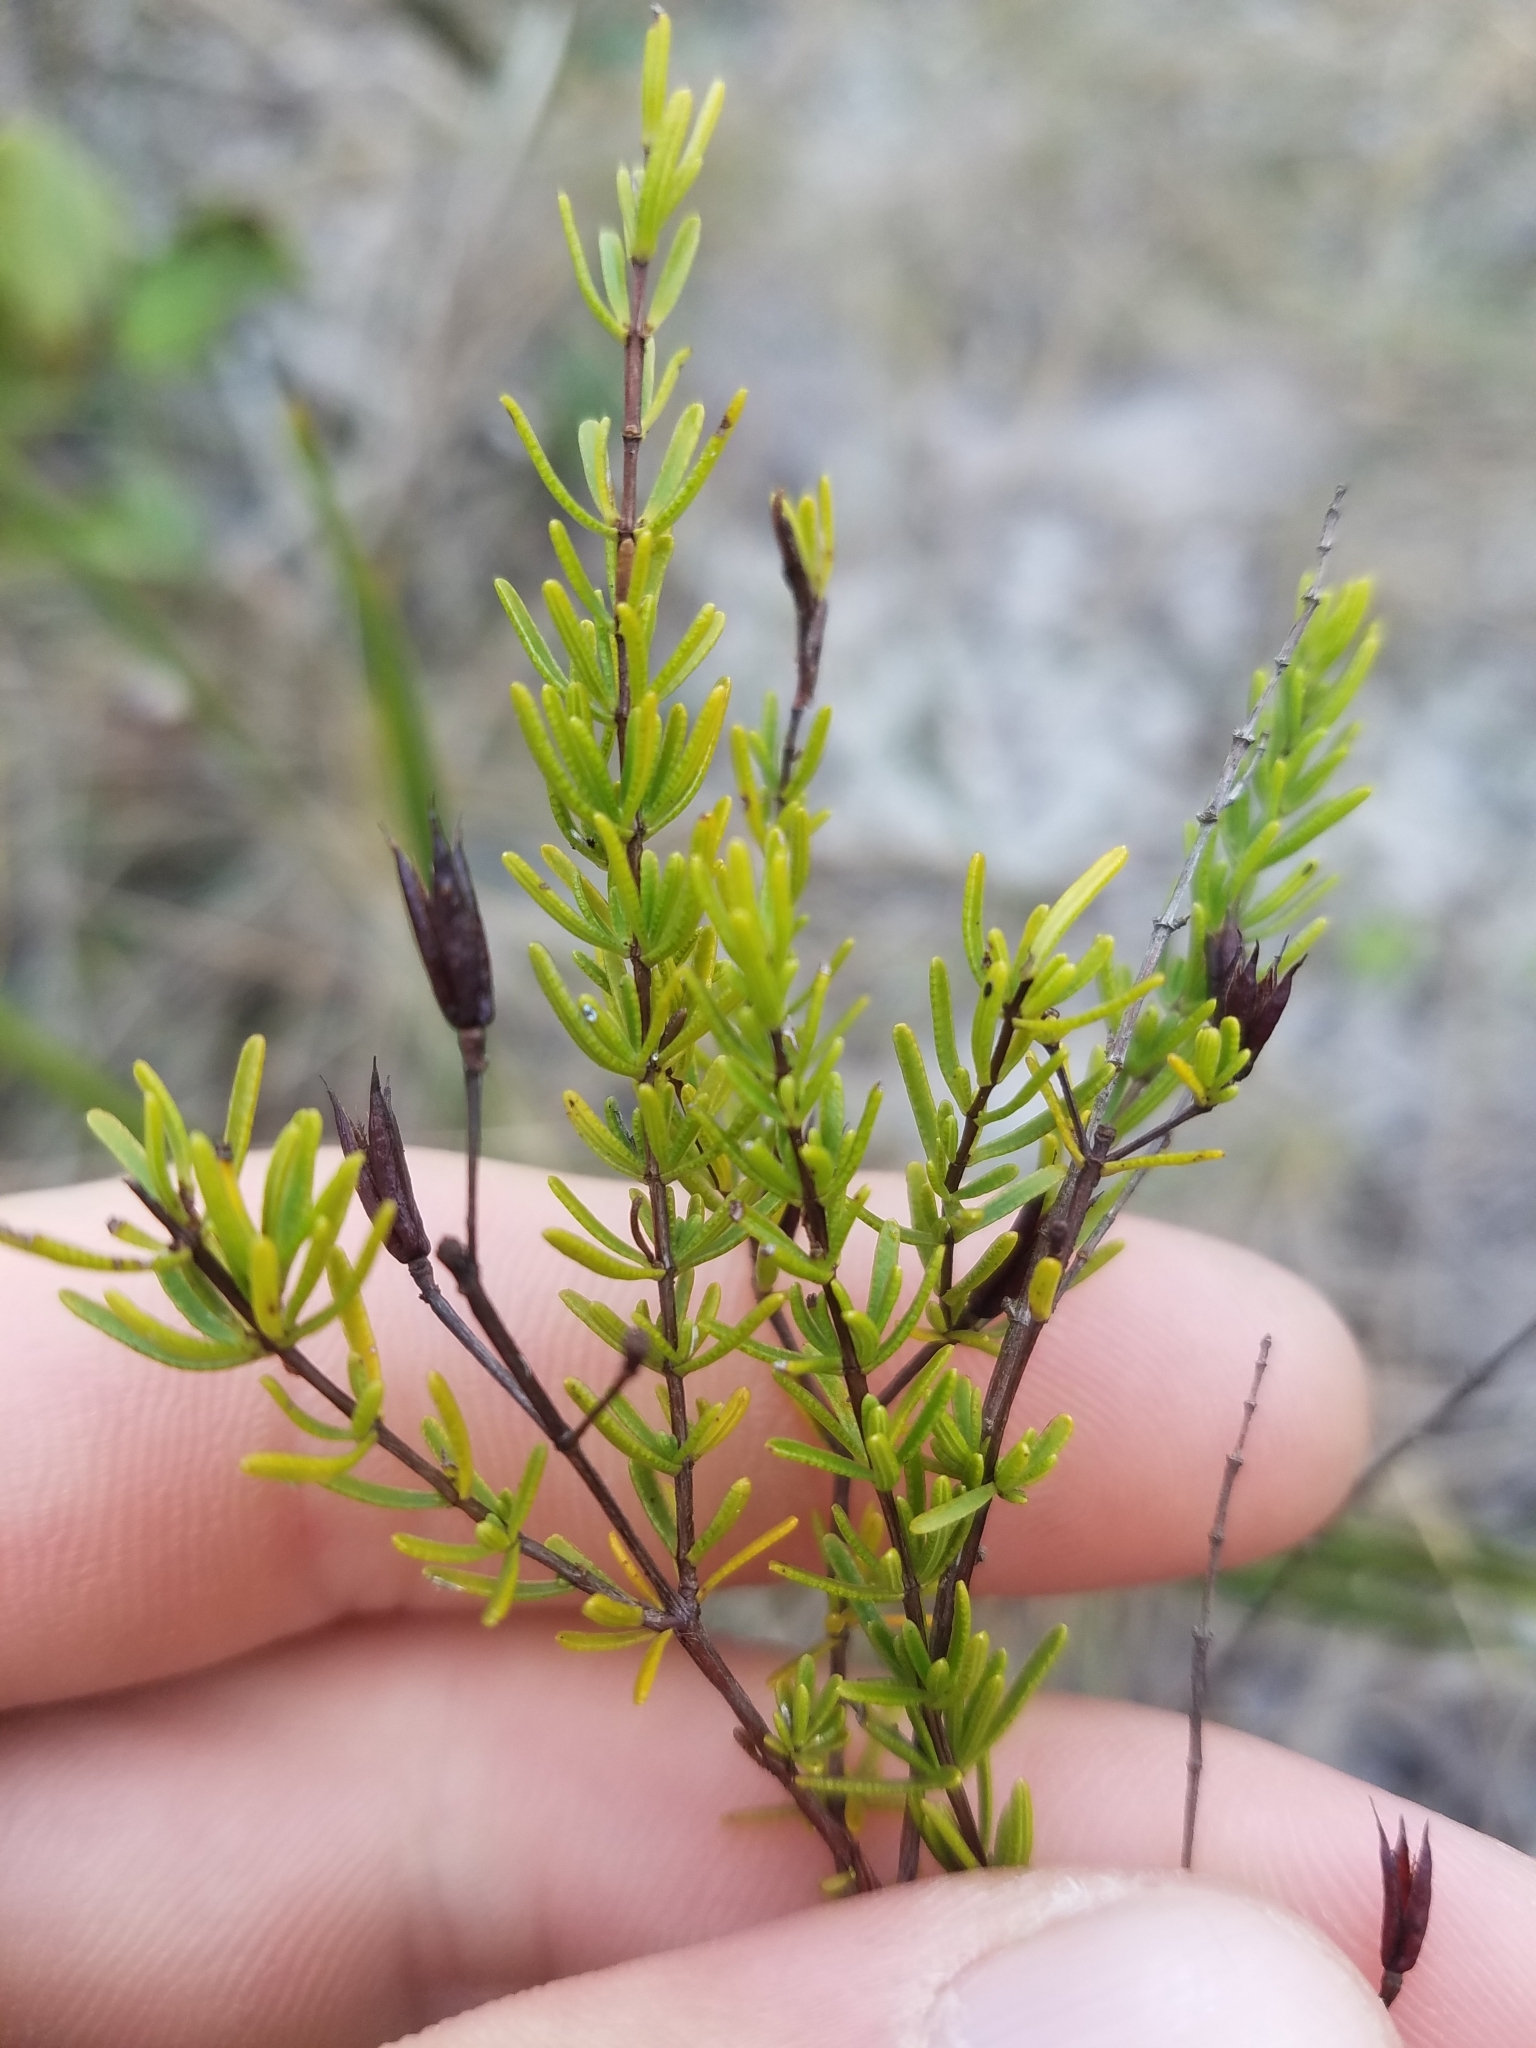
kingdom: Plantae
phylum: Tracheophyta
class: Magnoliopsida
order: Malpighiales
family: Hypericaceae
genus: Hypericum
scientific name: Hypericum tenuifolium
